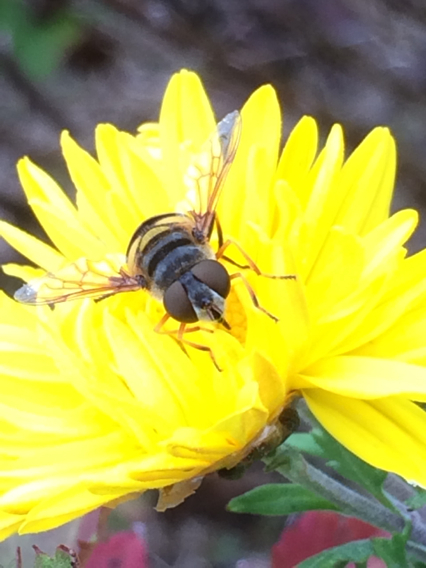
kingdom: Animalia
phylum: Arthropoda
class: Insecta
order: Diptera
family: Syrphidae
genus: Eristalis
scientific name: Eristalis transversa
